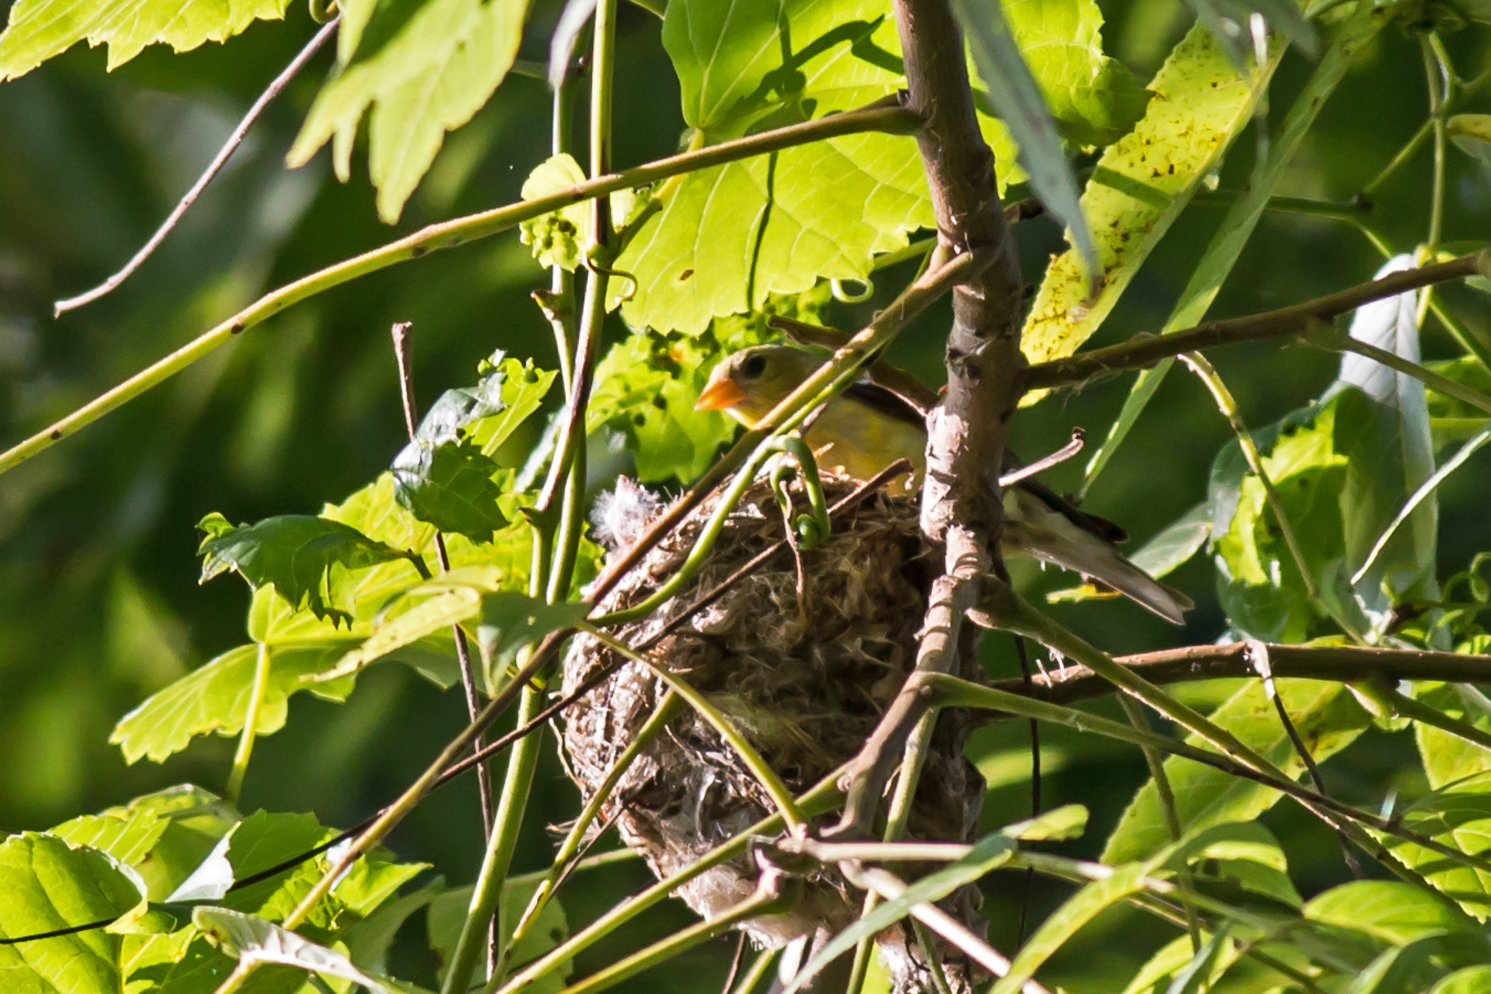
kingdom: Animalia
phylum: Chordata
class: Aves
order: Passeriformes
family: Fringillidae
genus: Spinus
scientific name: Spinus tristis
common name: American goldfinch
